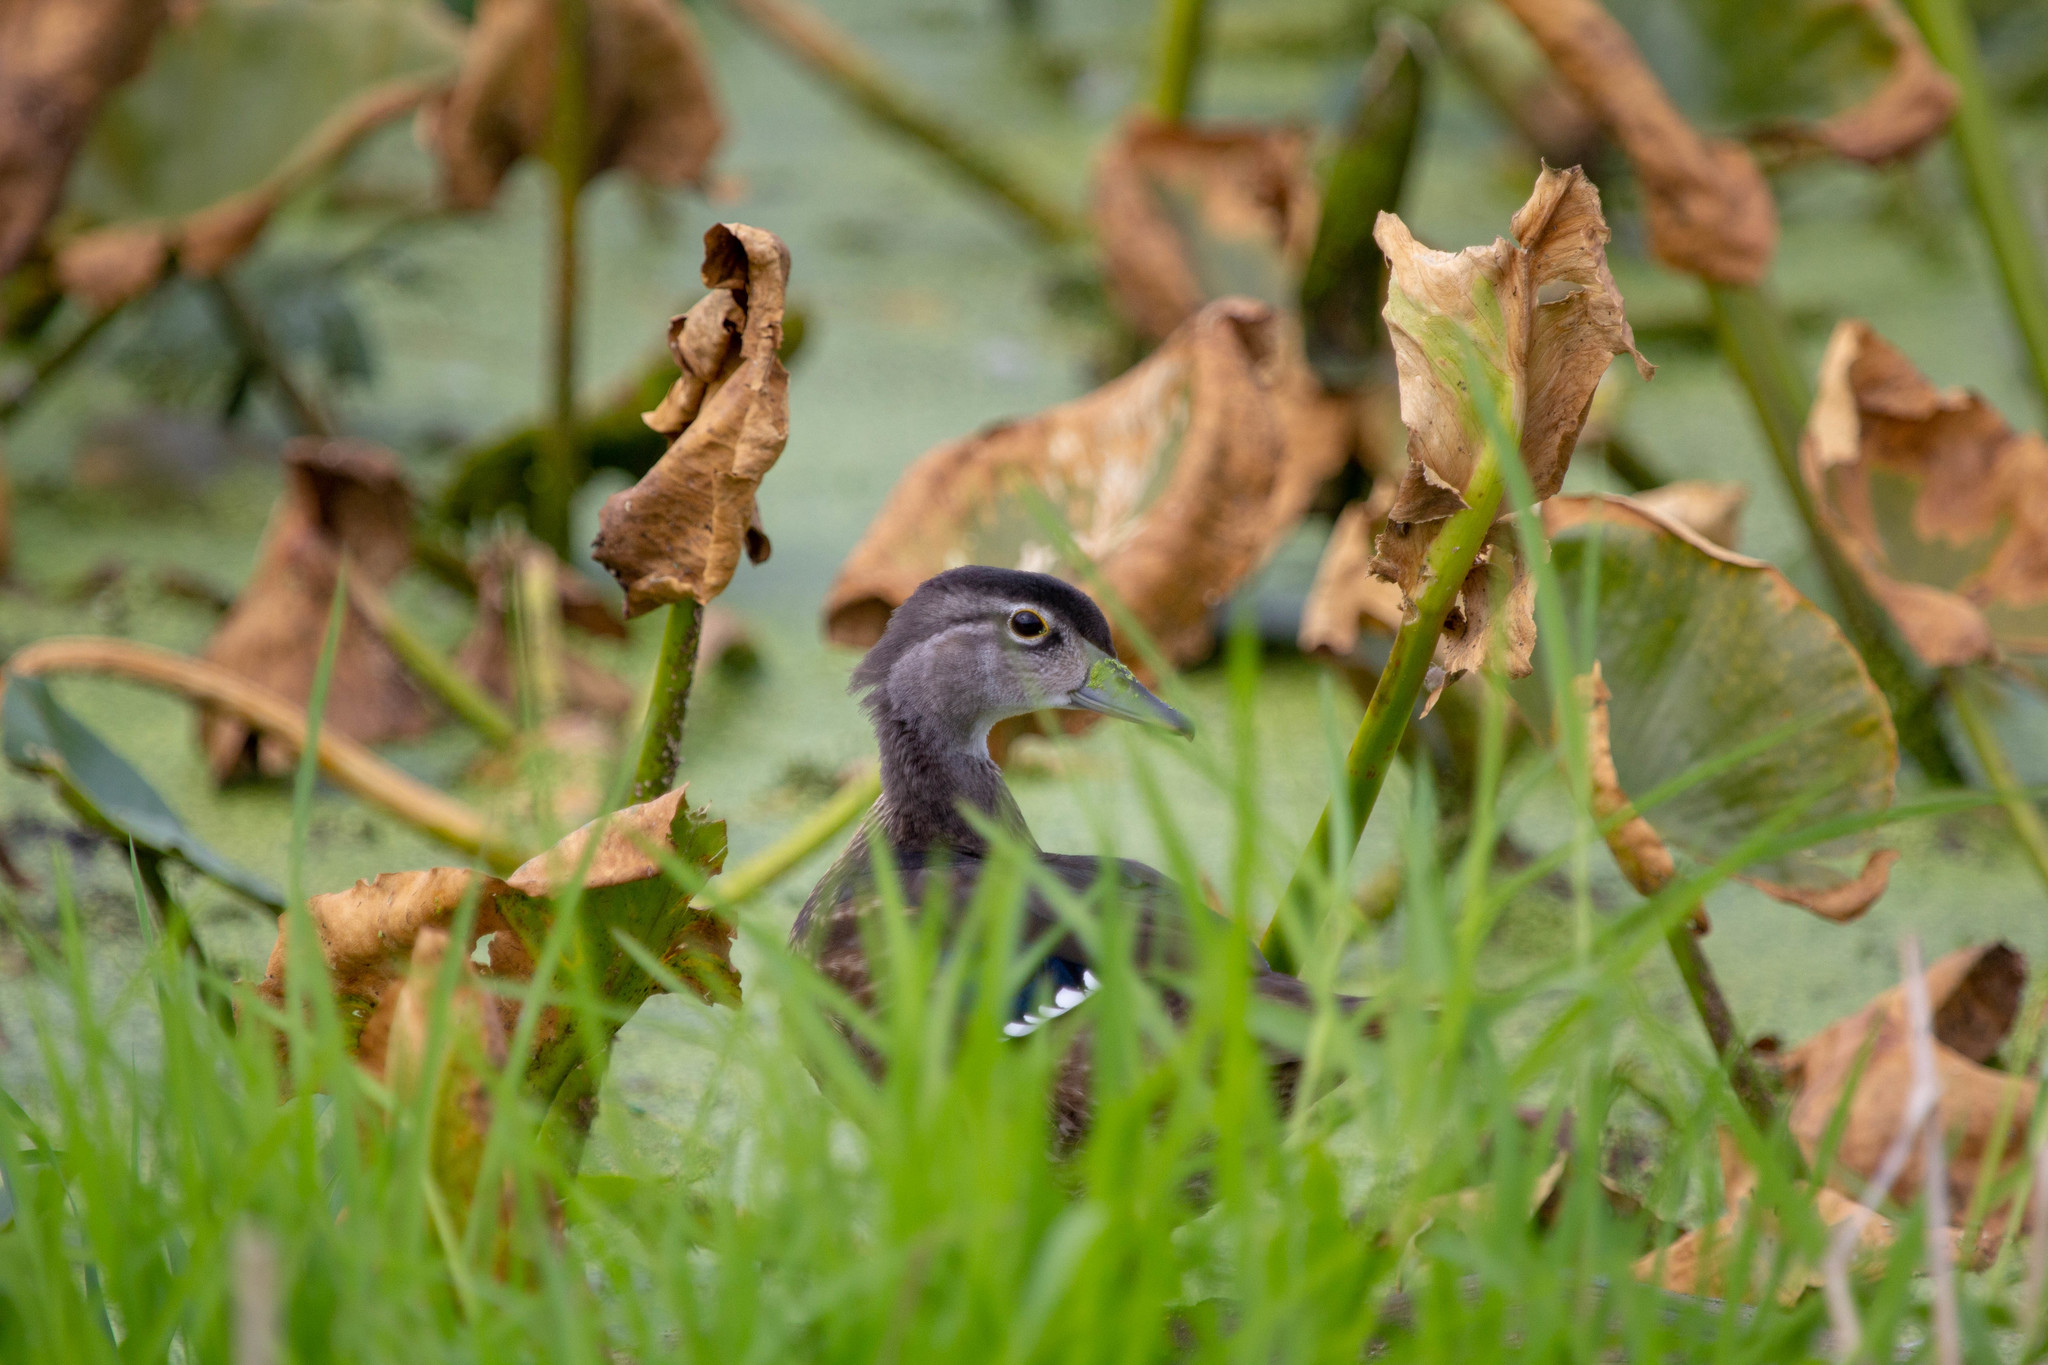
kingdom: Animalia
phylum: Chordata
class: Aves
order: Anseriformes
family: Anatidae
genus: Aix
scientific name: Aix sponsa
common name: Wood duck
